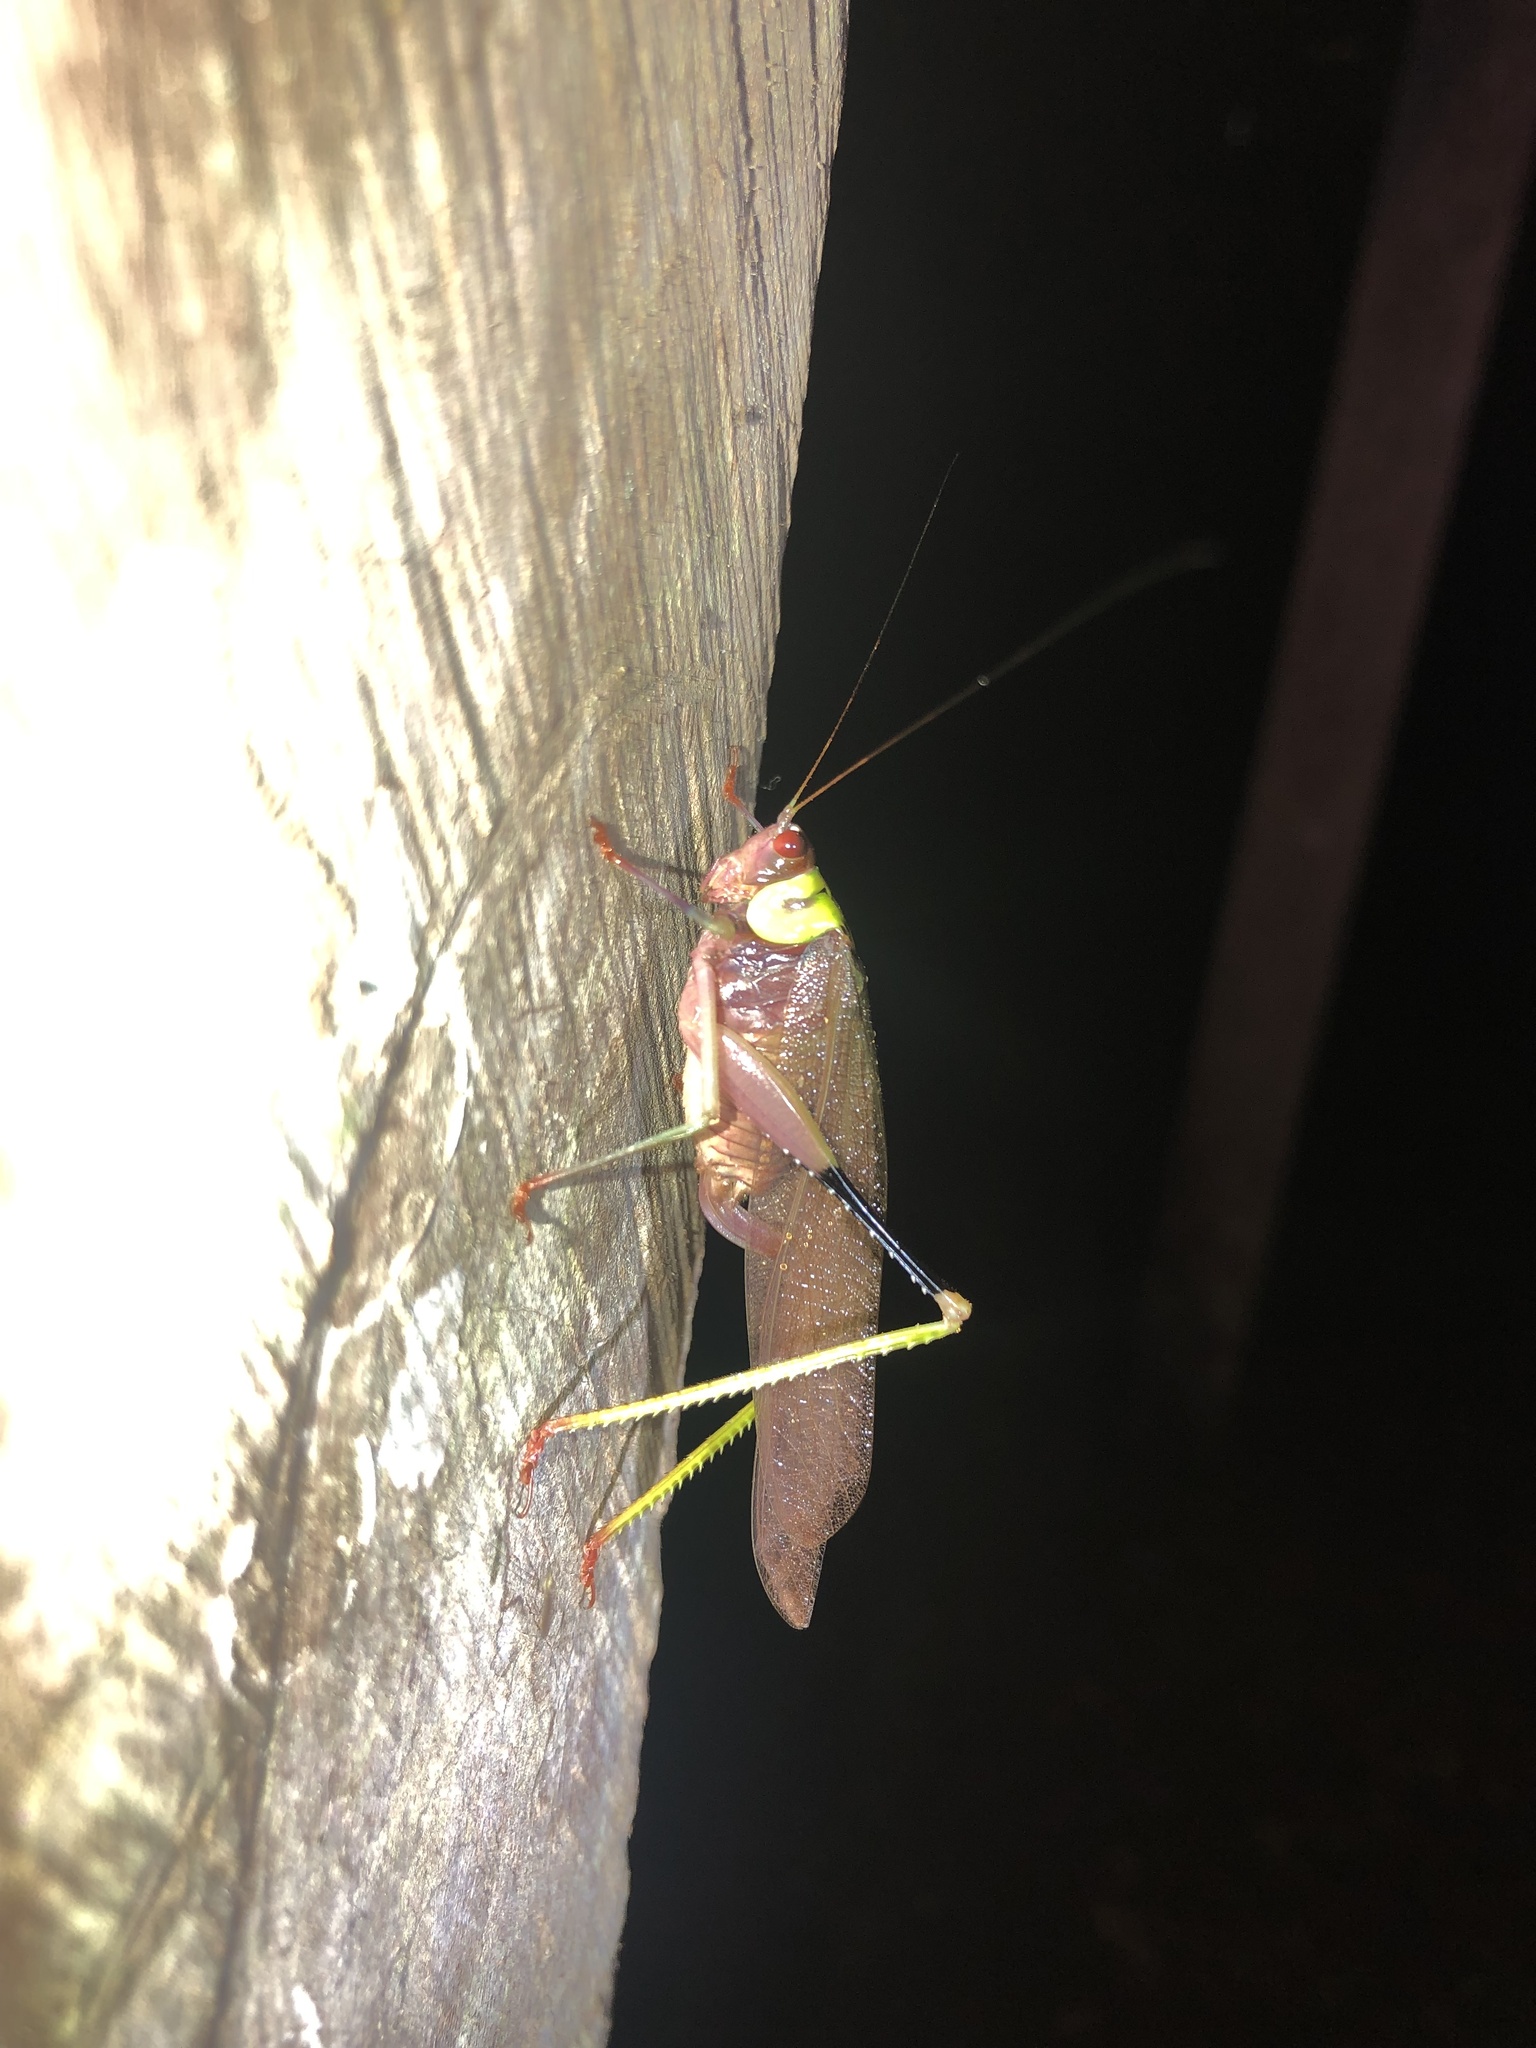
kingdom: Animalia
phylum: Arthropoda
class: Insecta
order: Orthoptera
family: Tettigoniidae
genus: Euceraia
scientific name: Euceraia insignis
